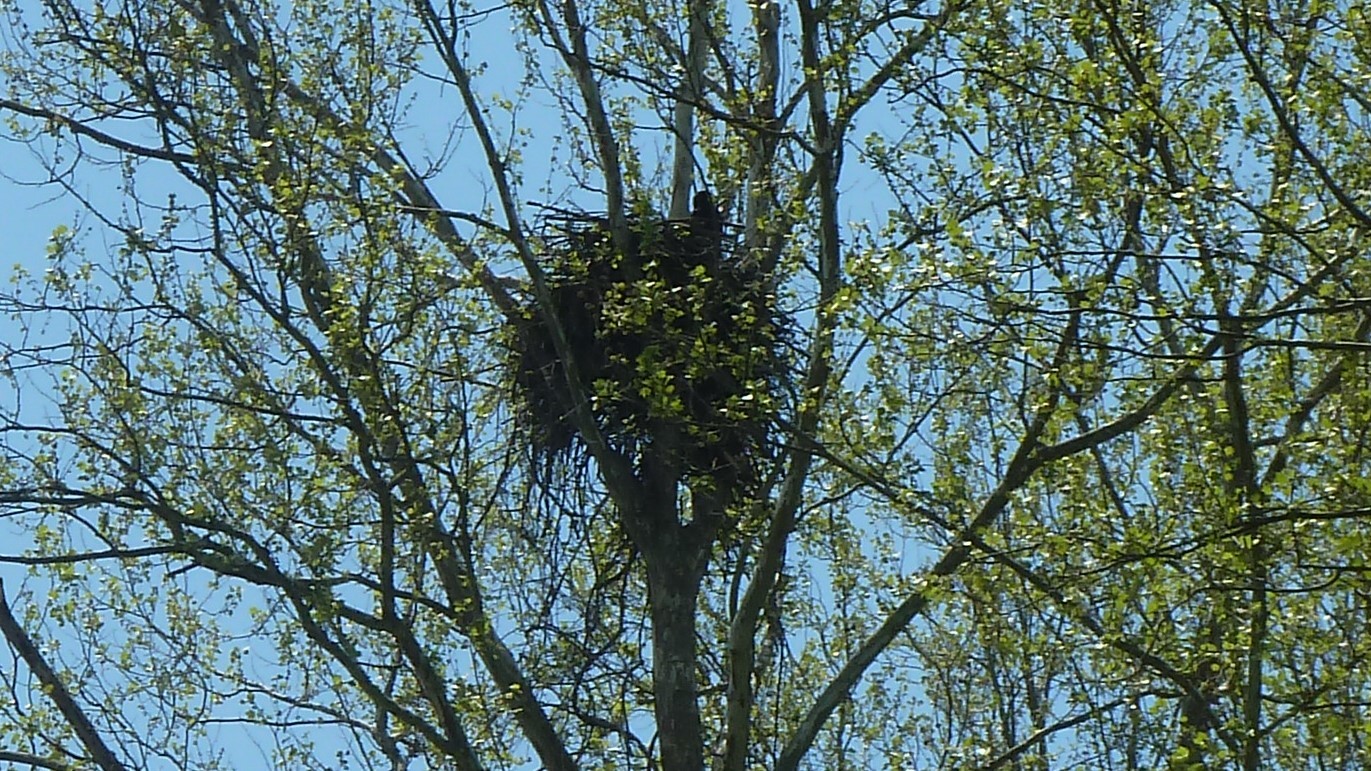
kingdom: Animalia
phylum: Chordata
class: Aves
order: Accipitriformes
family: Accipitridae
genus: Haliaeetus
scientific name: Haliaeetus leucocephalus
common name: Bald eagle
